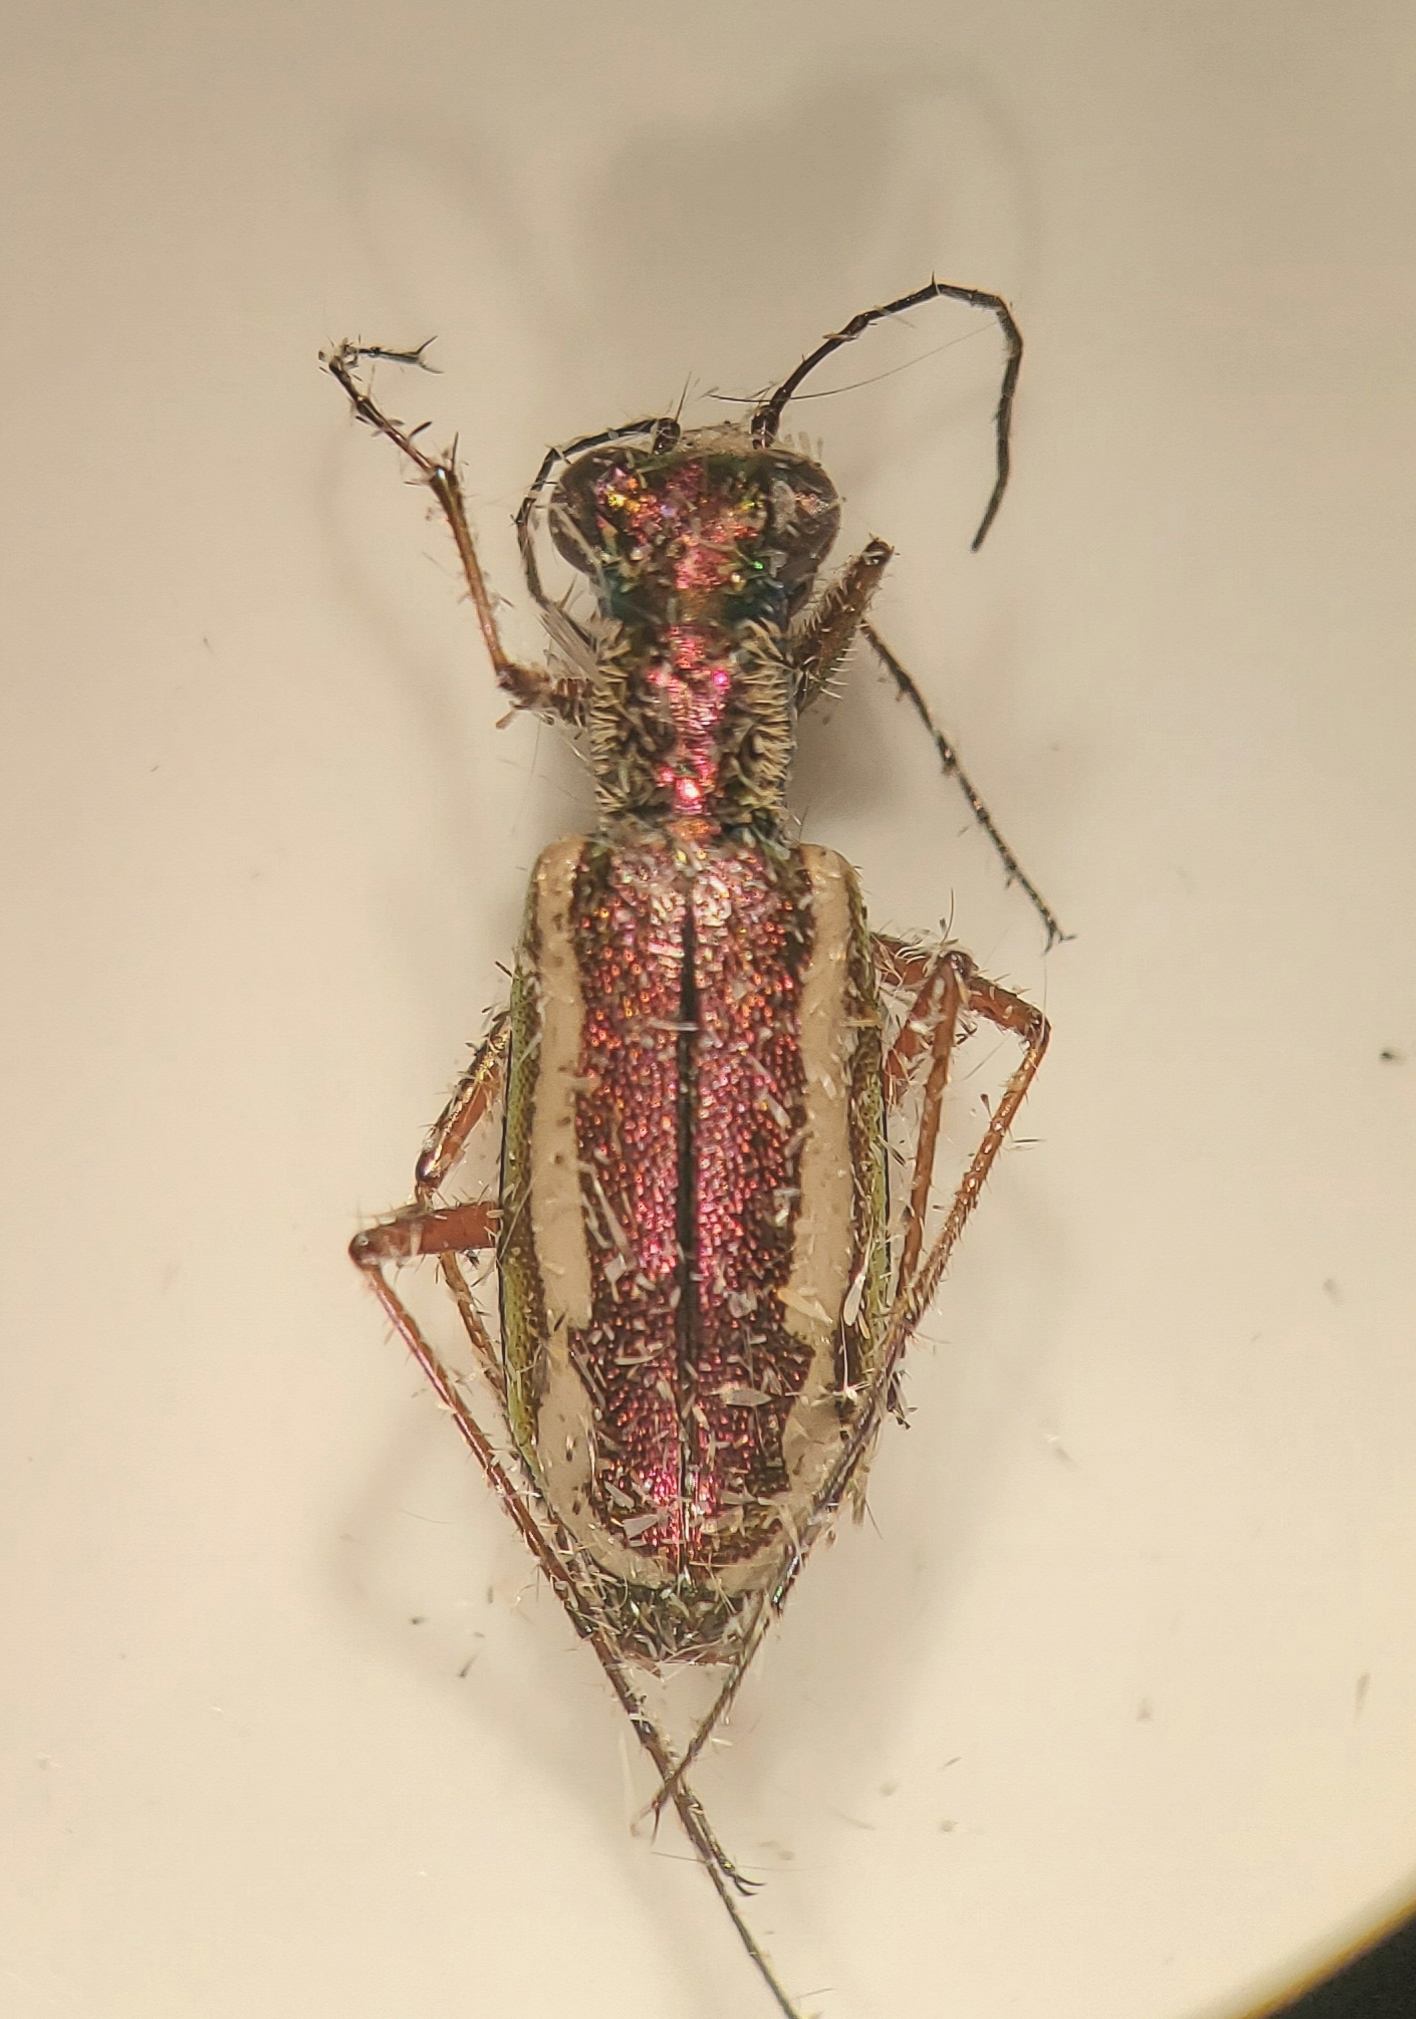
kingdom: Animalia
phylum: Arthropoda
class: Insecta
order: Coleoptera
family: Carabidae
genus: Cylindera
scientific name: Cylindera lemniscata
